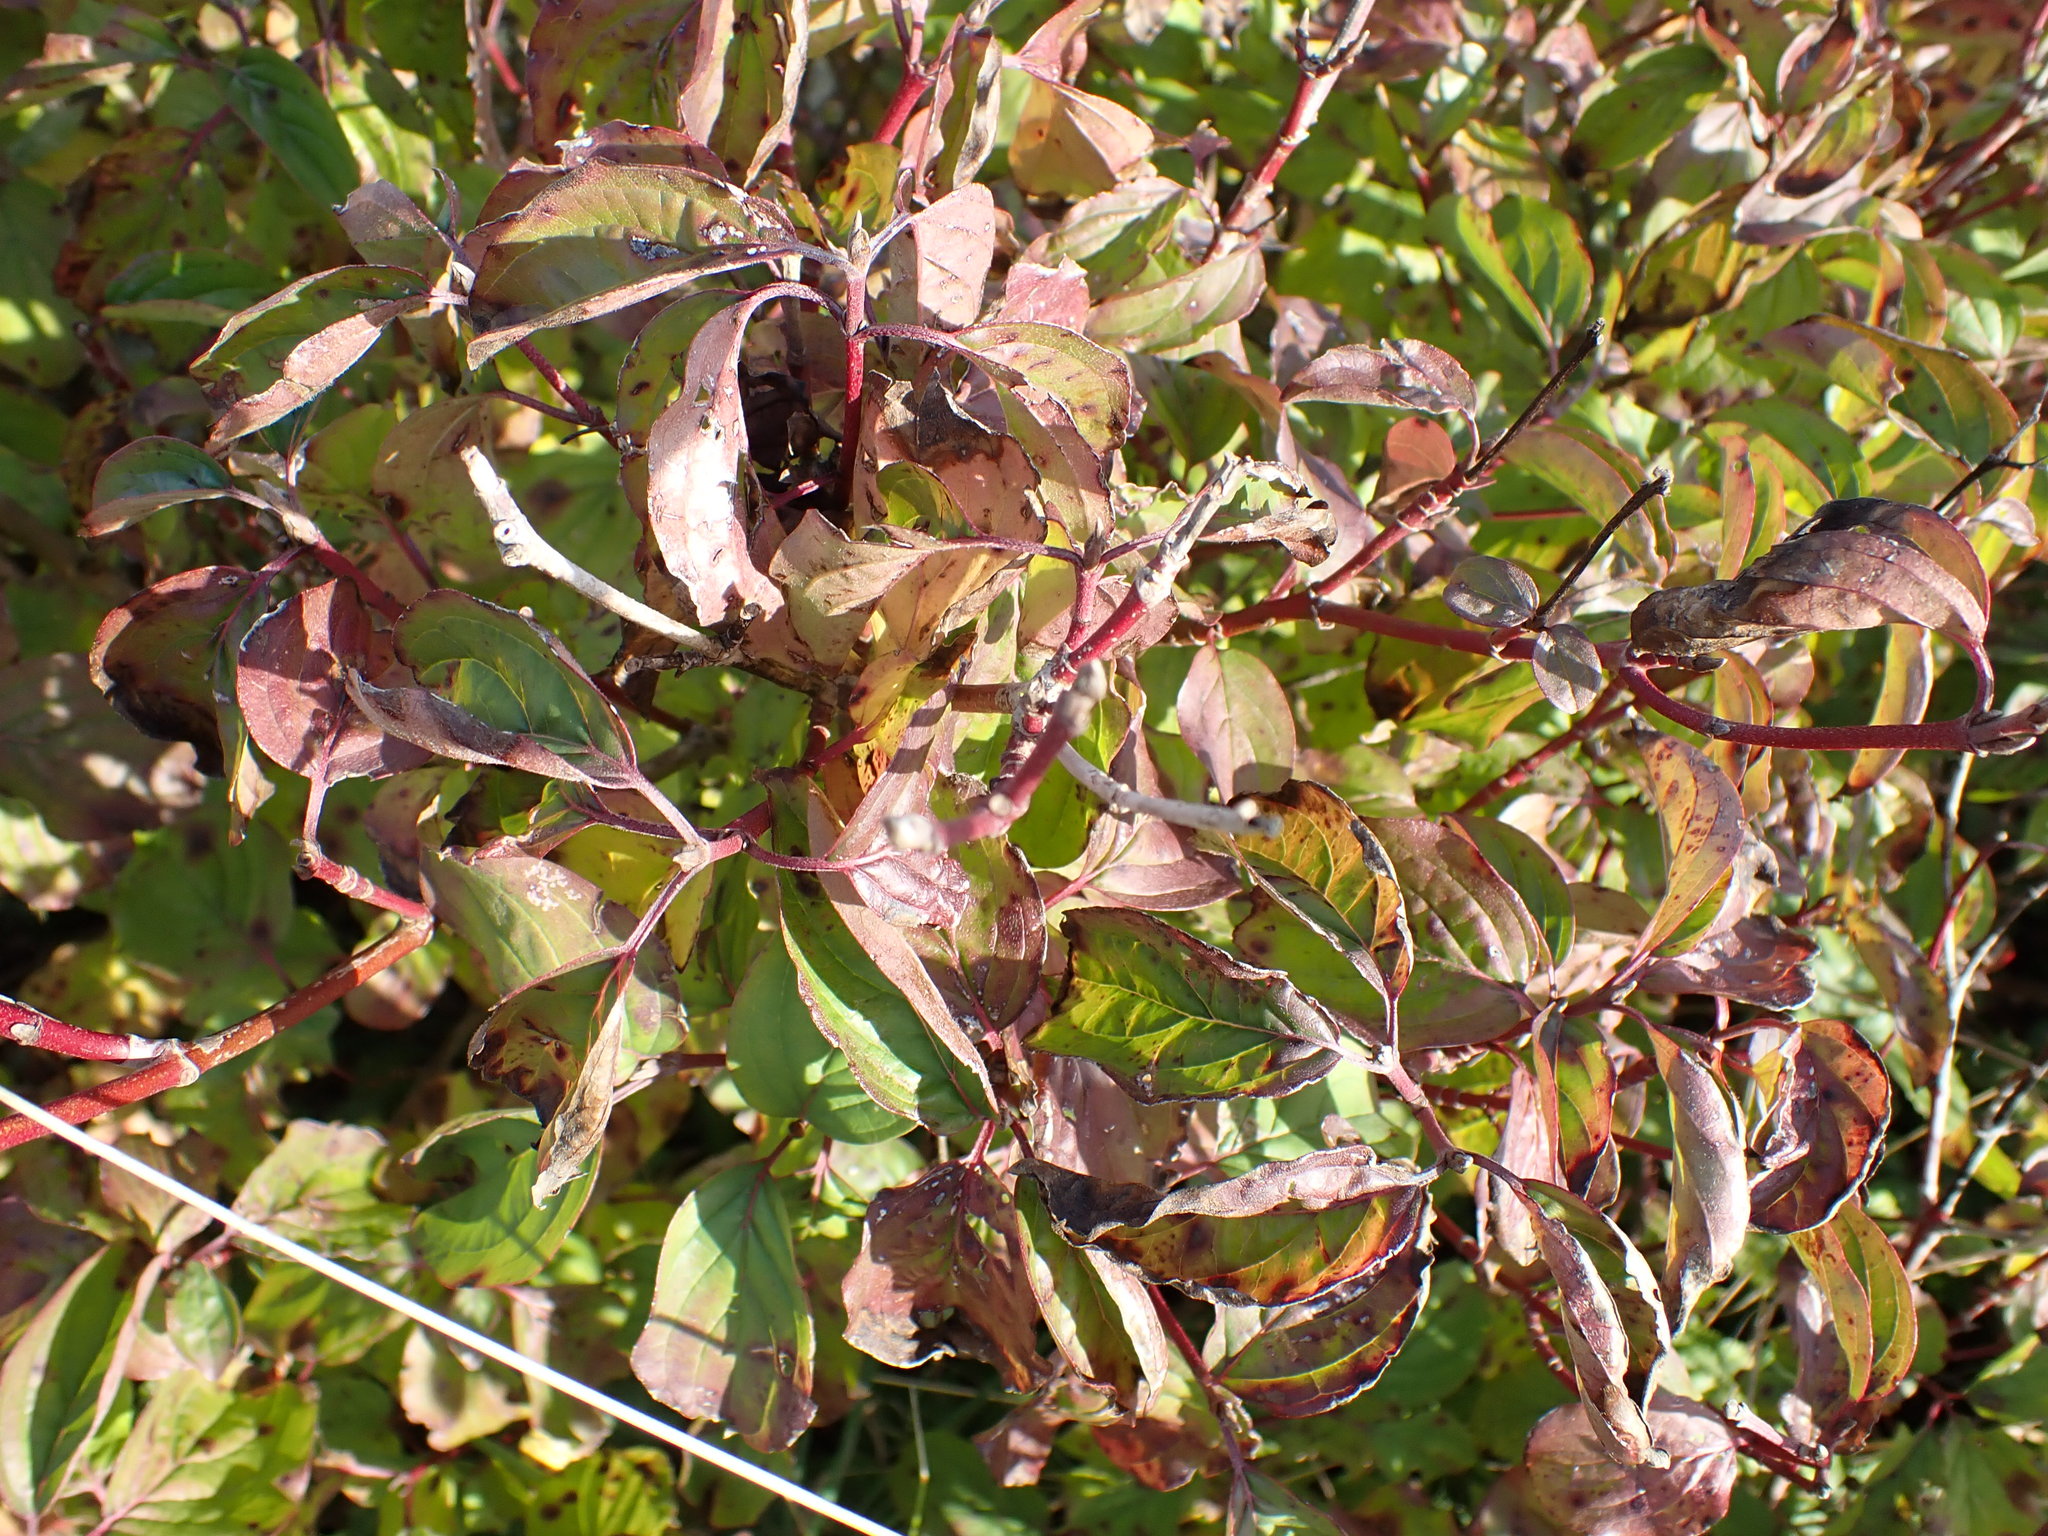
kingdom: Plantae
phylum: Tracheophyta
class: Magnoliopsida
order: Cornales
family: Cornaceae
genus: Cornus
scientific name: Cornus sanguinea
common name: Dogwood
